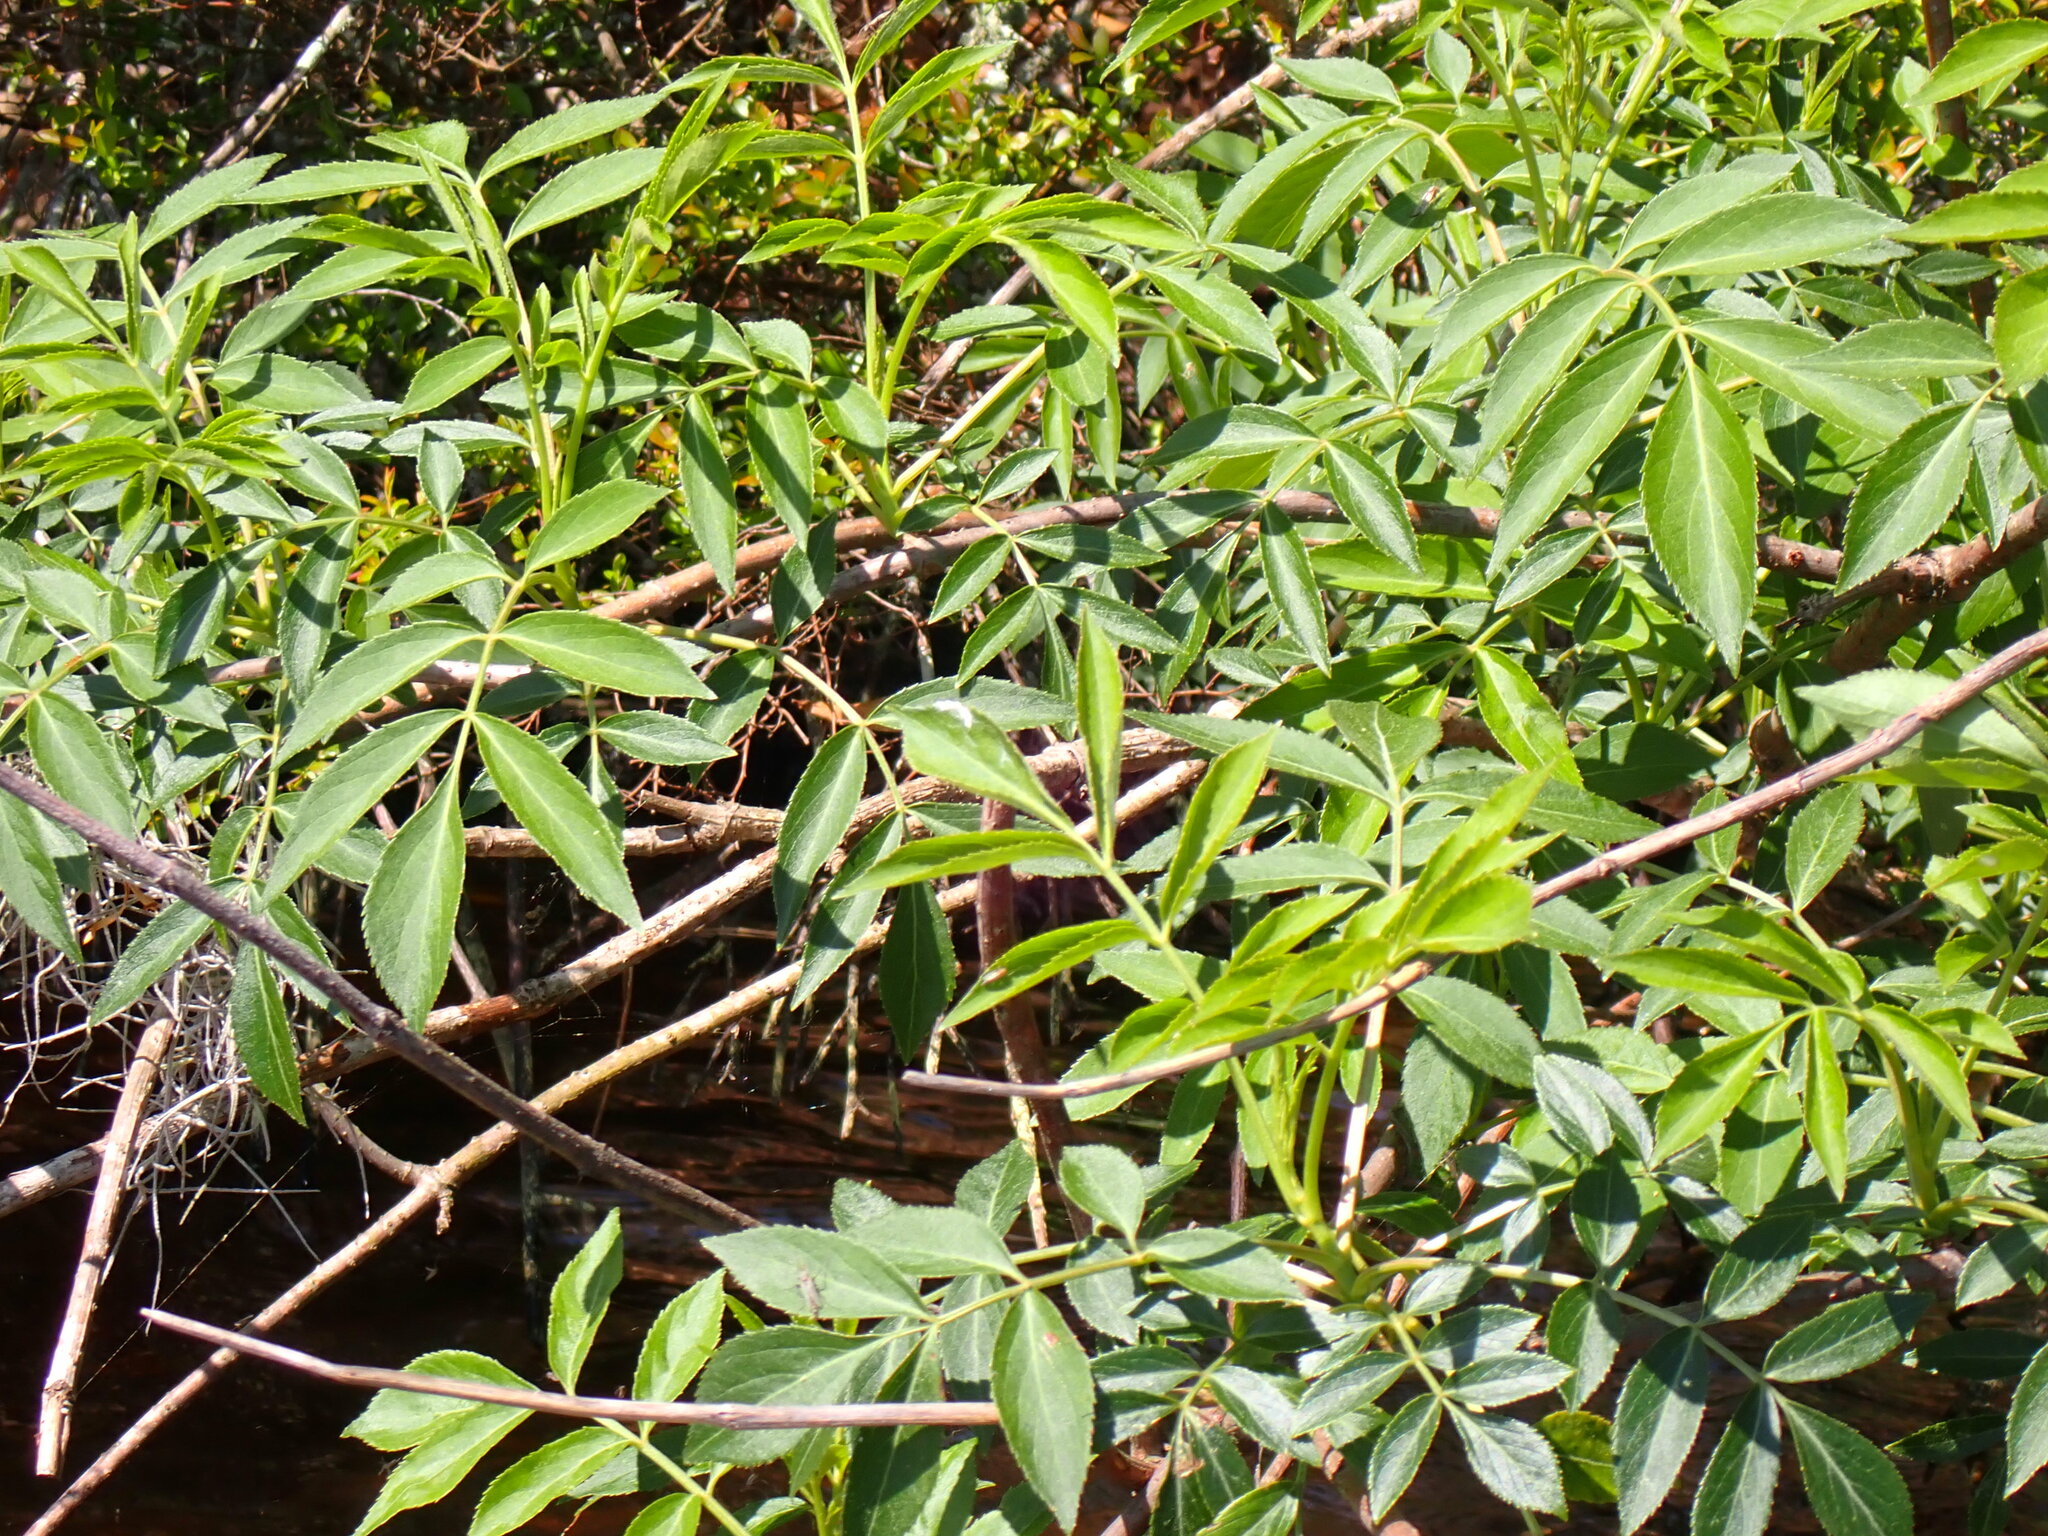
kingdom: Plantae
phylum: Tracheophyta
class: Magnoliopsida
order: Dipsacales
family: Viburnaceae
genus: Sambucus
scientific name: Sambucus canadensis
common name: American elder
